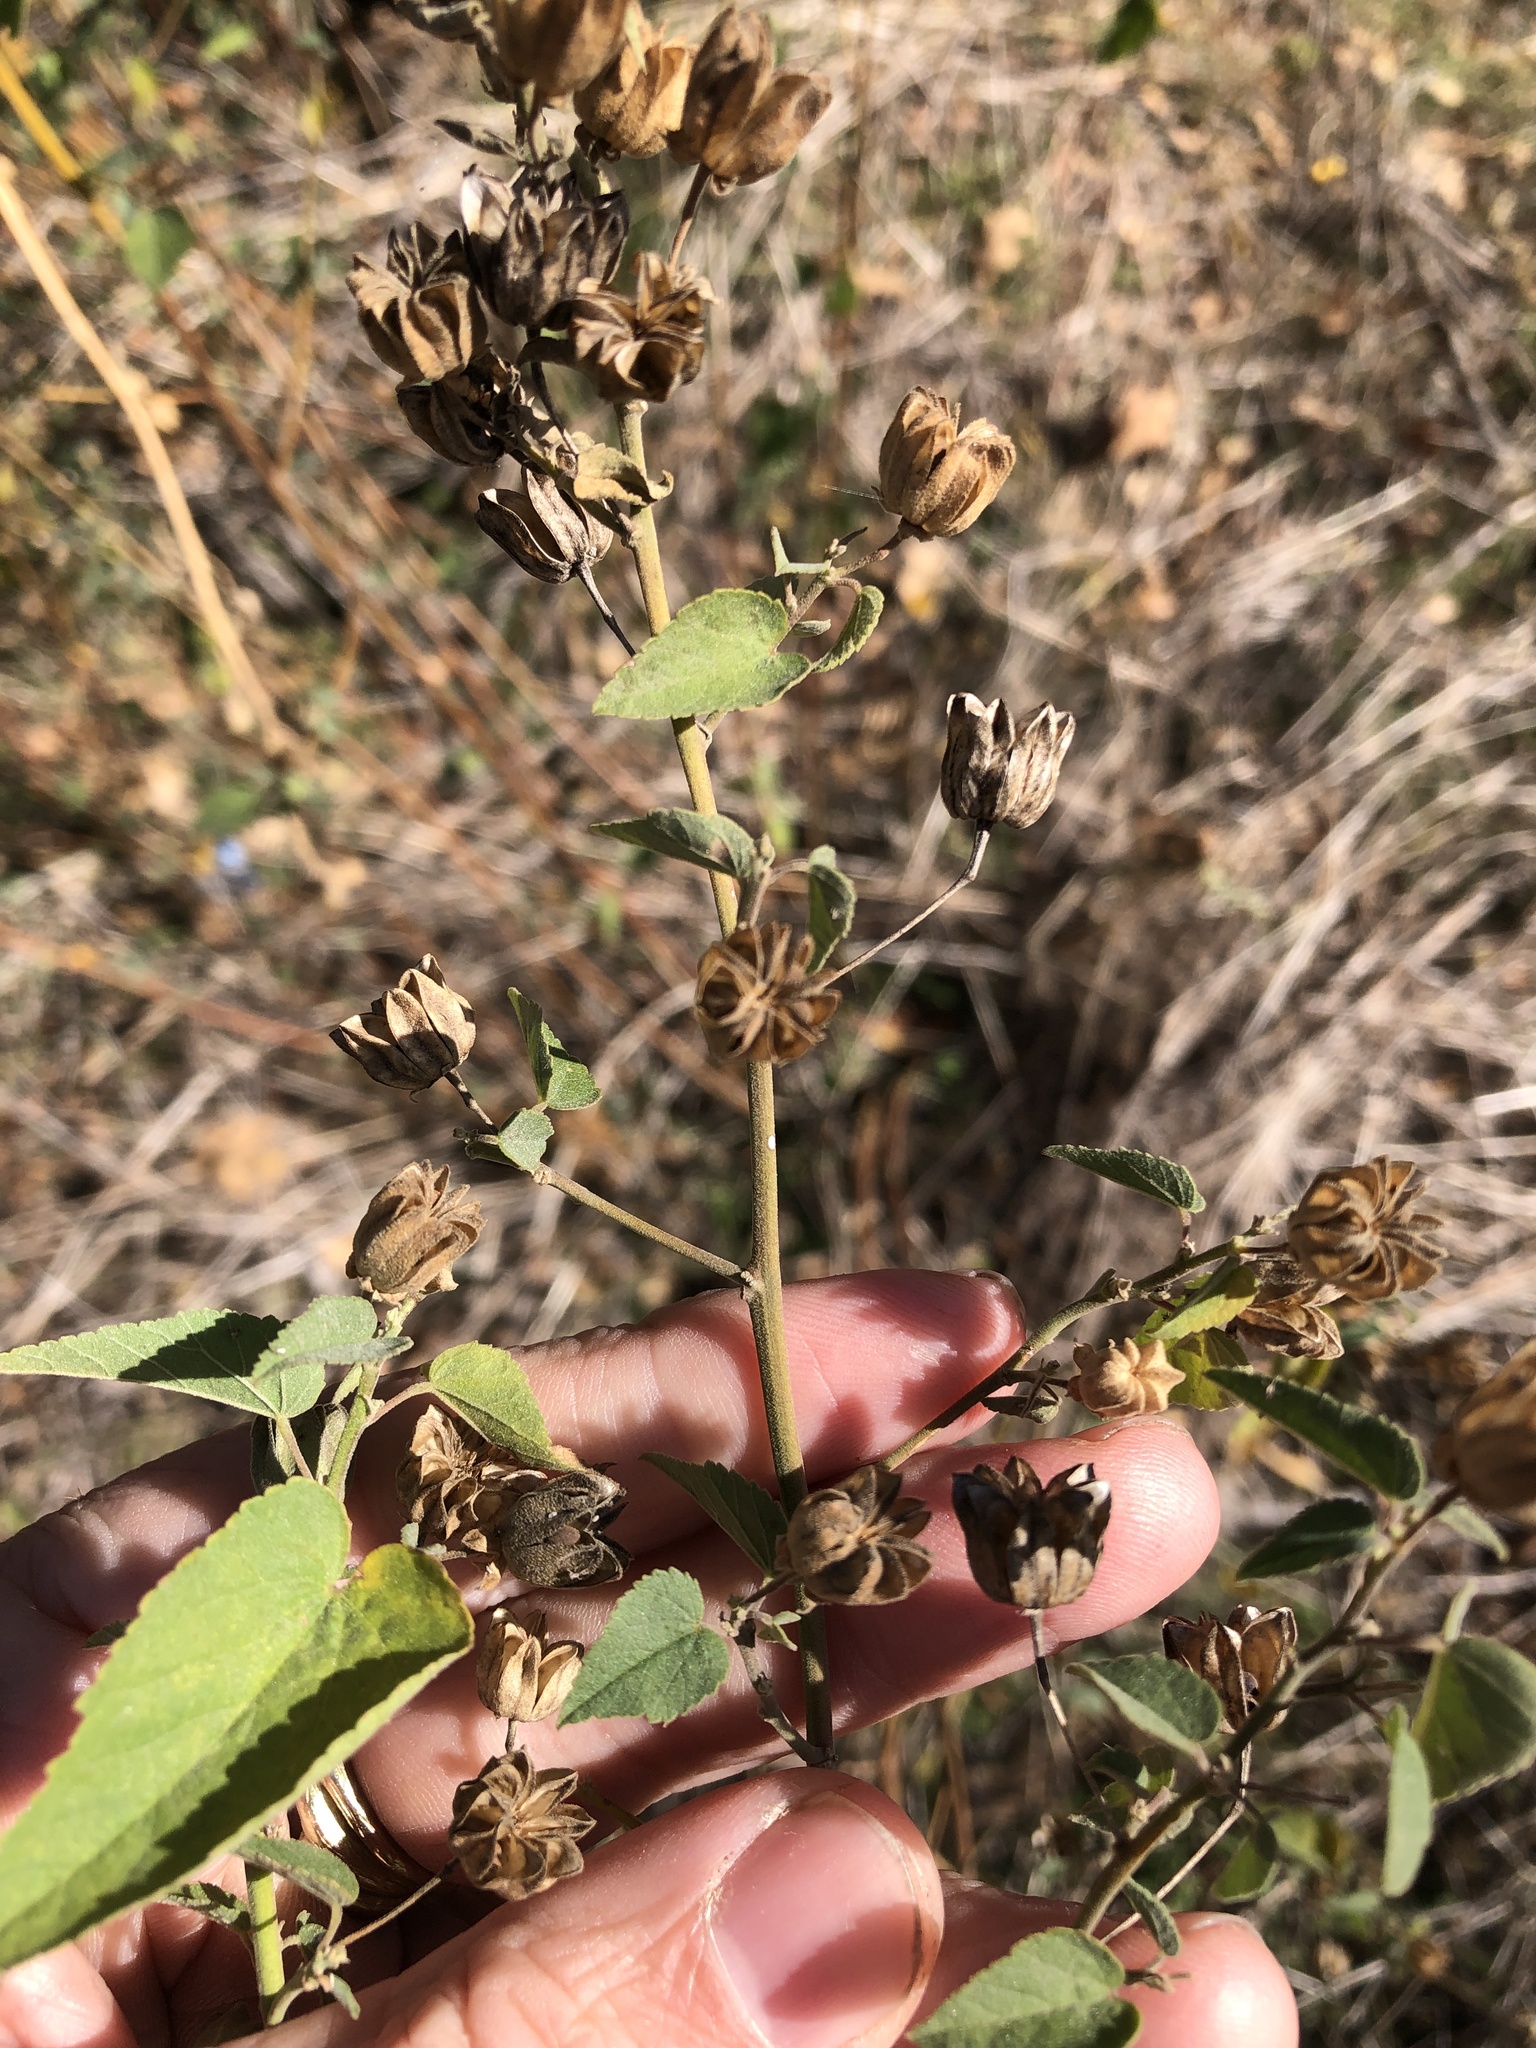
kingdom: Plantae
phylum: Tracheophyta
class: Magnoliopsida
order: Malvales
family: Malvaceae
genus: Abutilon
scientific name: Abutilon fruticosum
